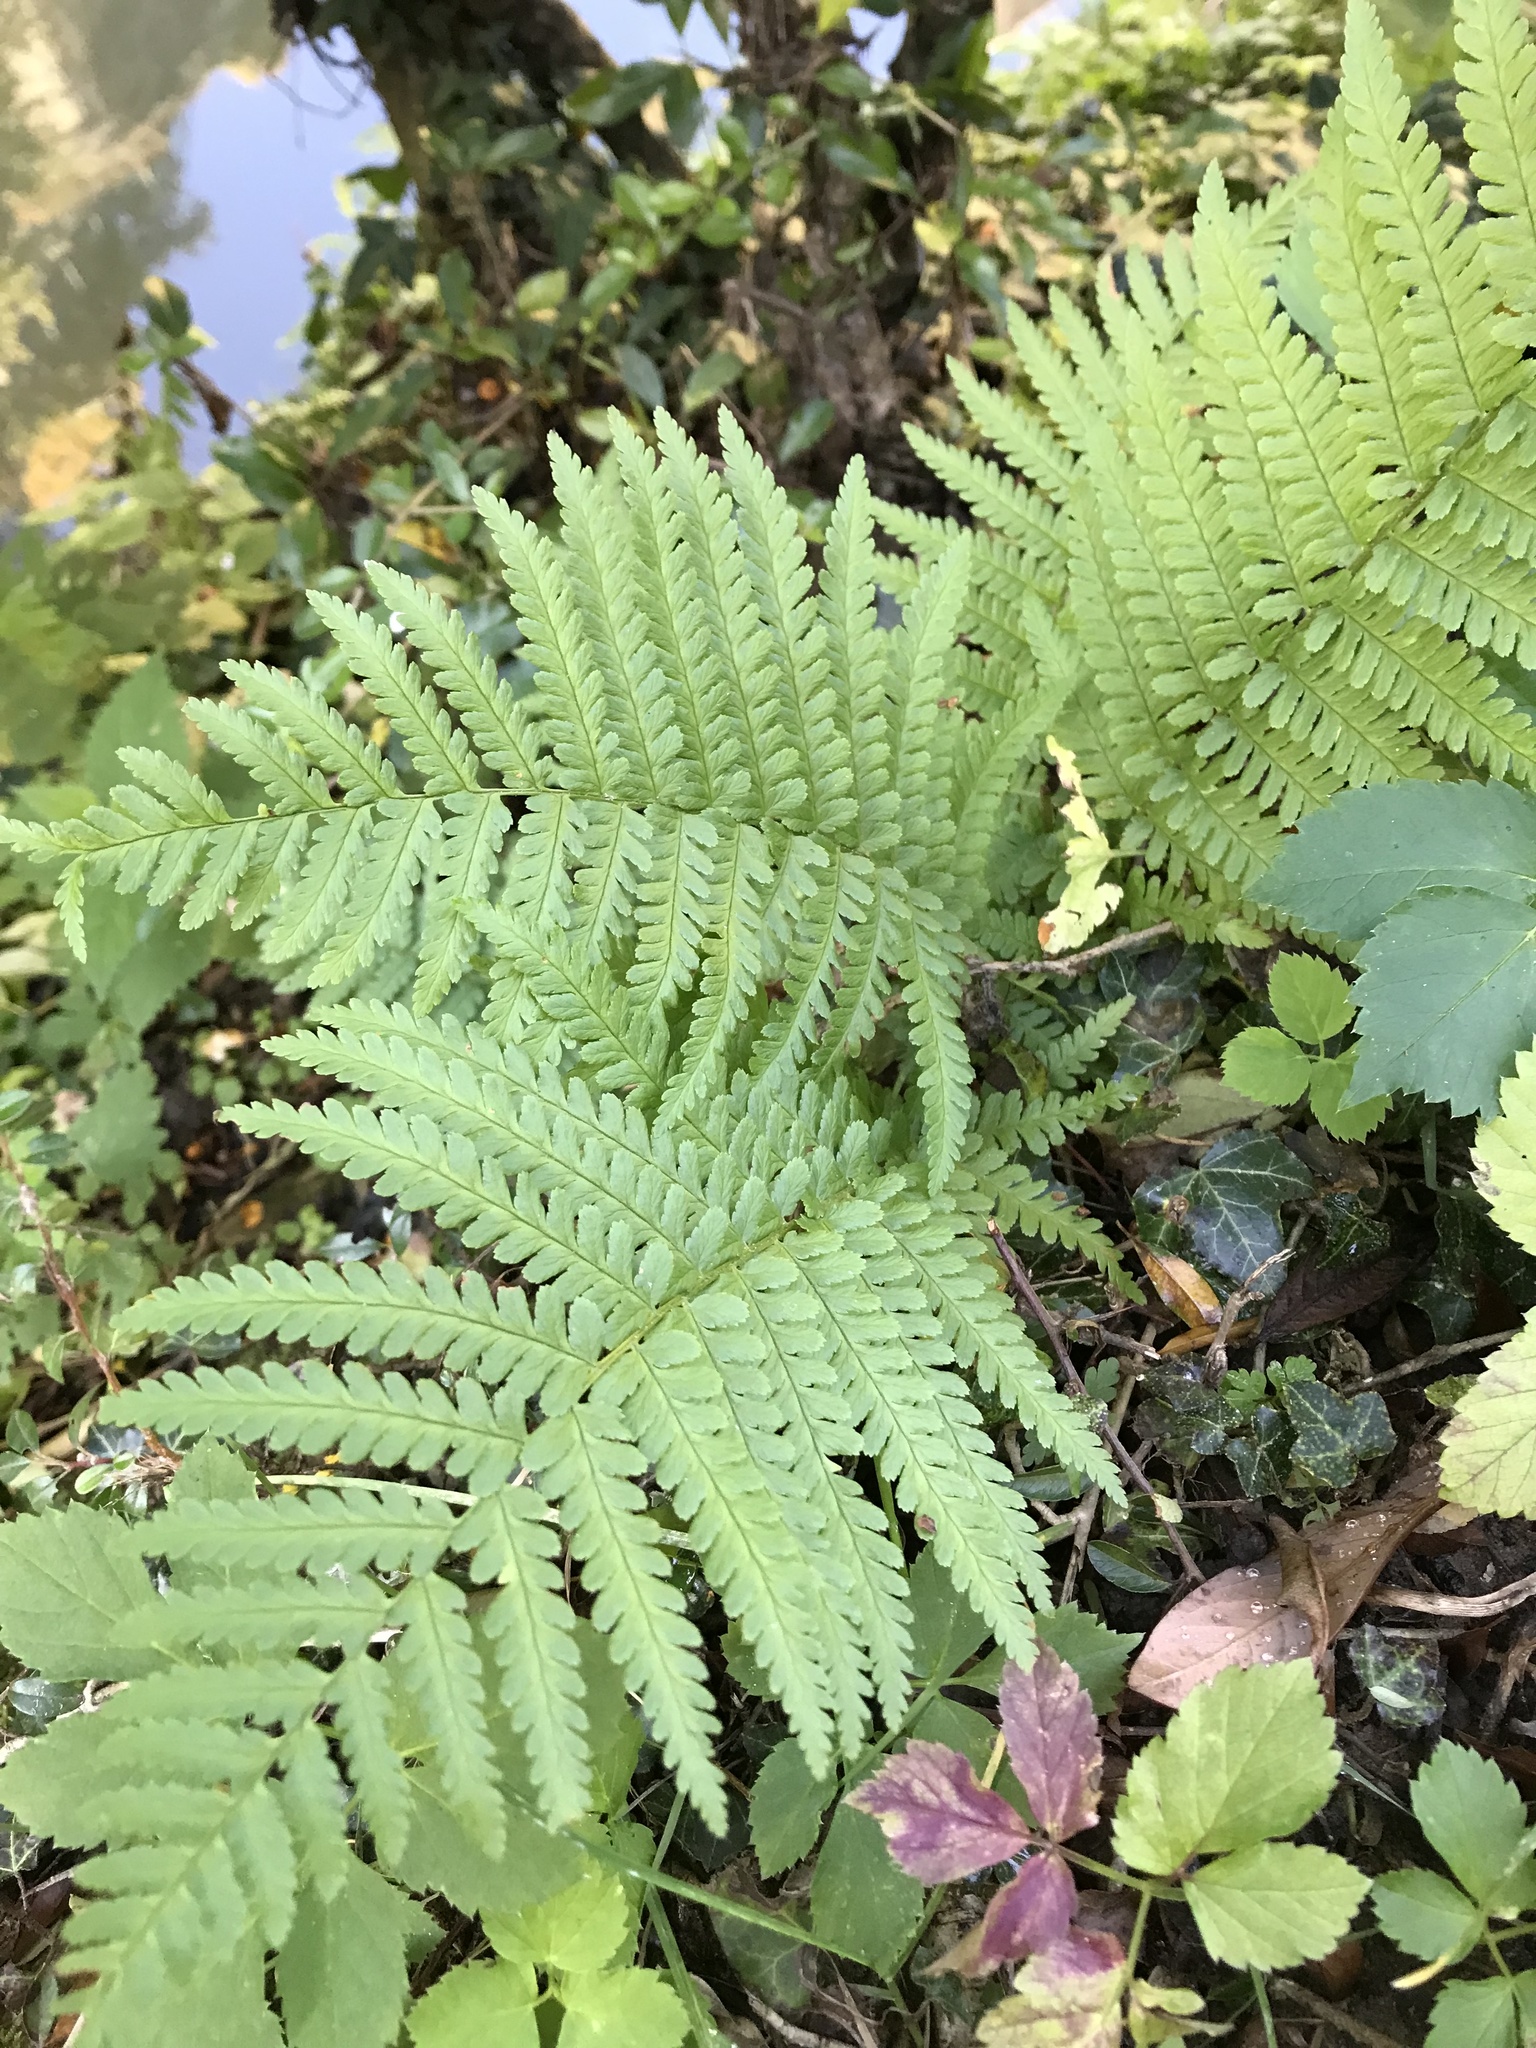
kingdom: Plantae
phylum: Tracheophyta
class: Polypodiopsida
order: Polypodiales
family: Dryopteridaceae
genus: Dryopteris
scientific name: Dryopteris filix-mas
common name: Male fern
